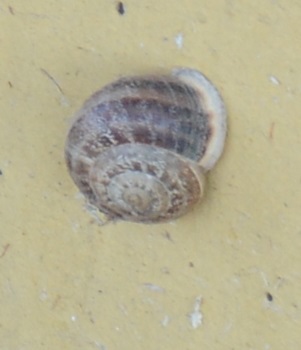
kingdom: Animalia
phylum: Mollusca
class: Gastropoda
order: Stylommatophora
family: Helicidae
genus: Eobania
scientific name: Eobania vermiculata
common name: Chocolateband snail
